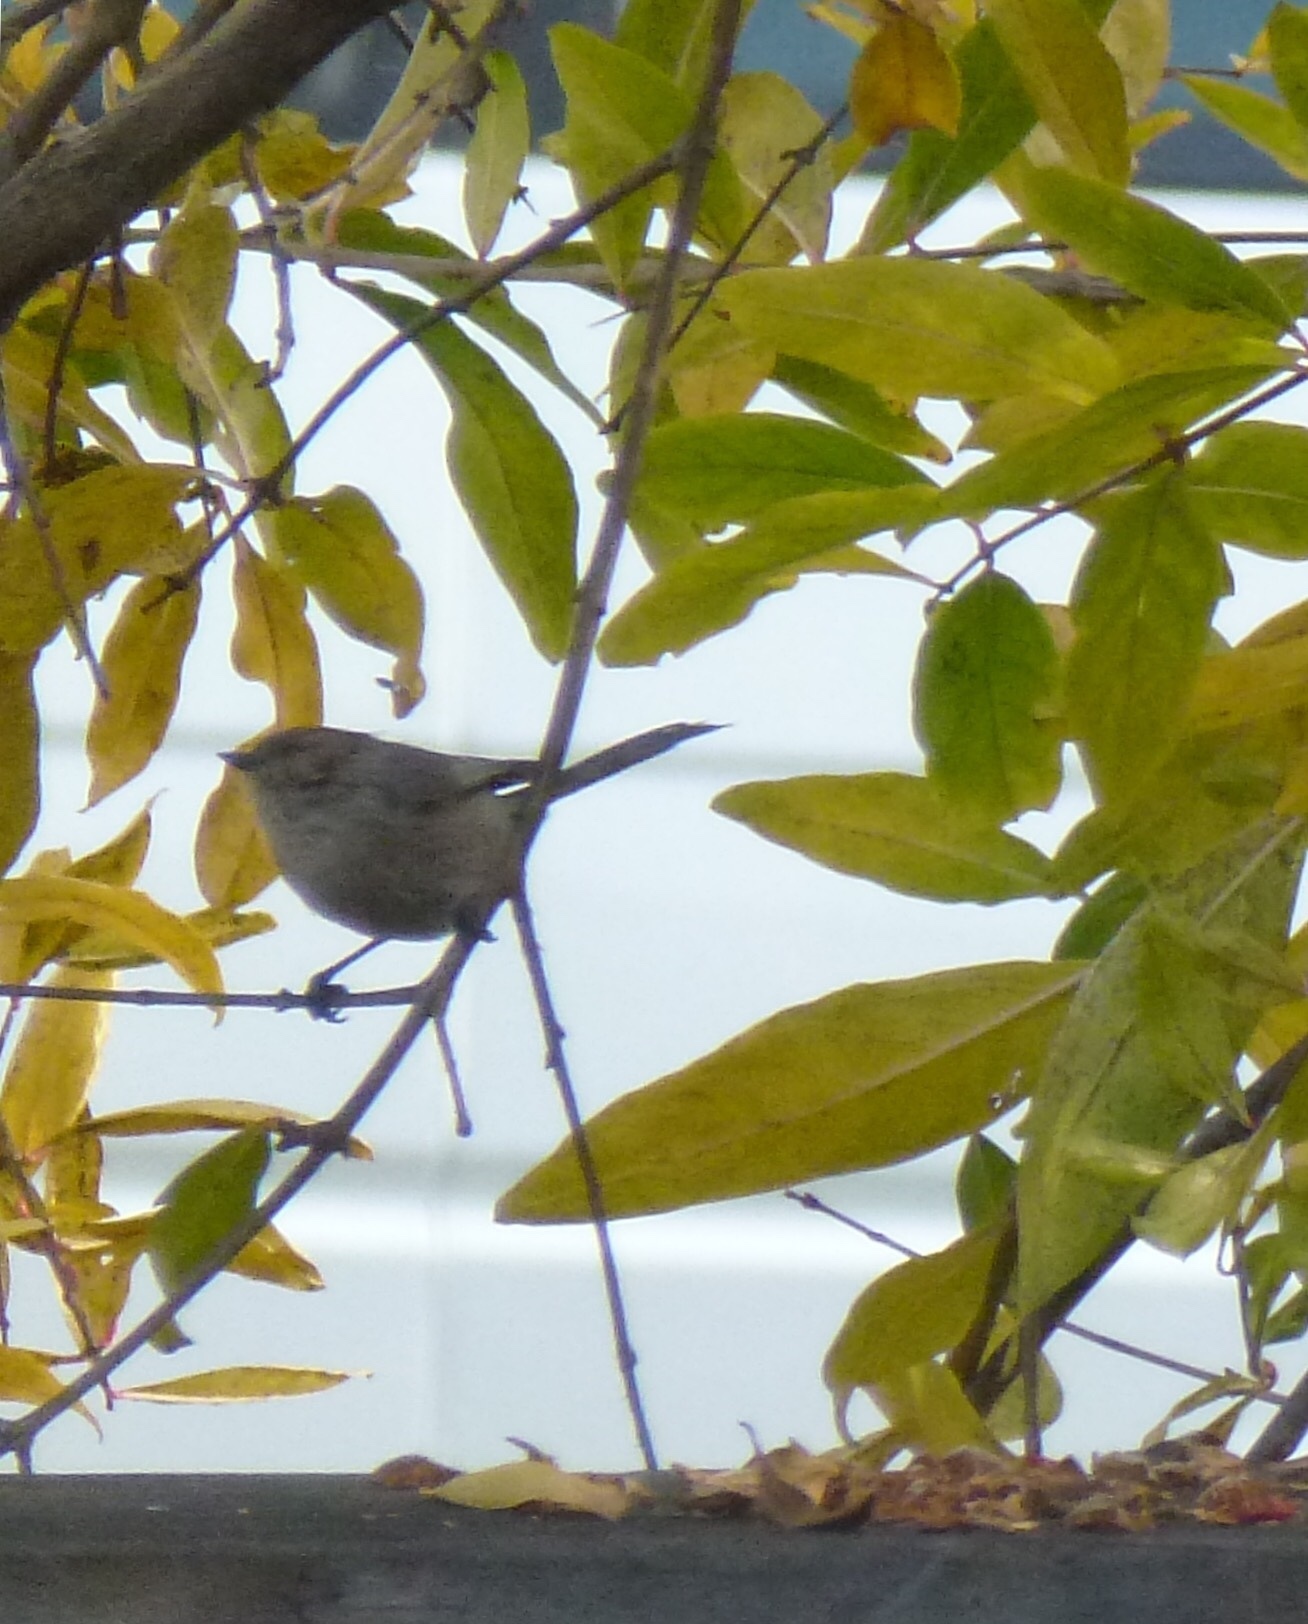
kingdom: Animalia
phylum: Chordata
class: Aves
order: Passeriformes
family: Aegithalidae
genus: Psaltriparus
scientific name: Psaltriparus minimus
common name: American bushtit
